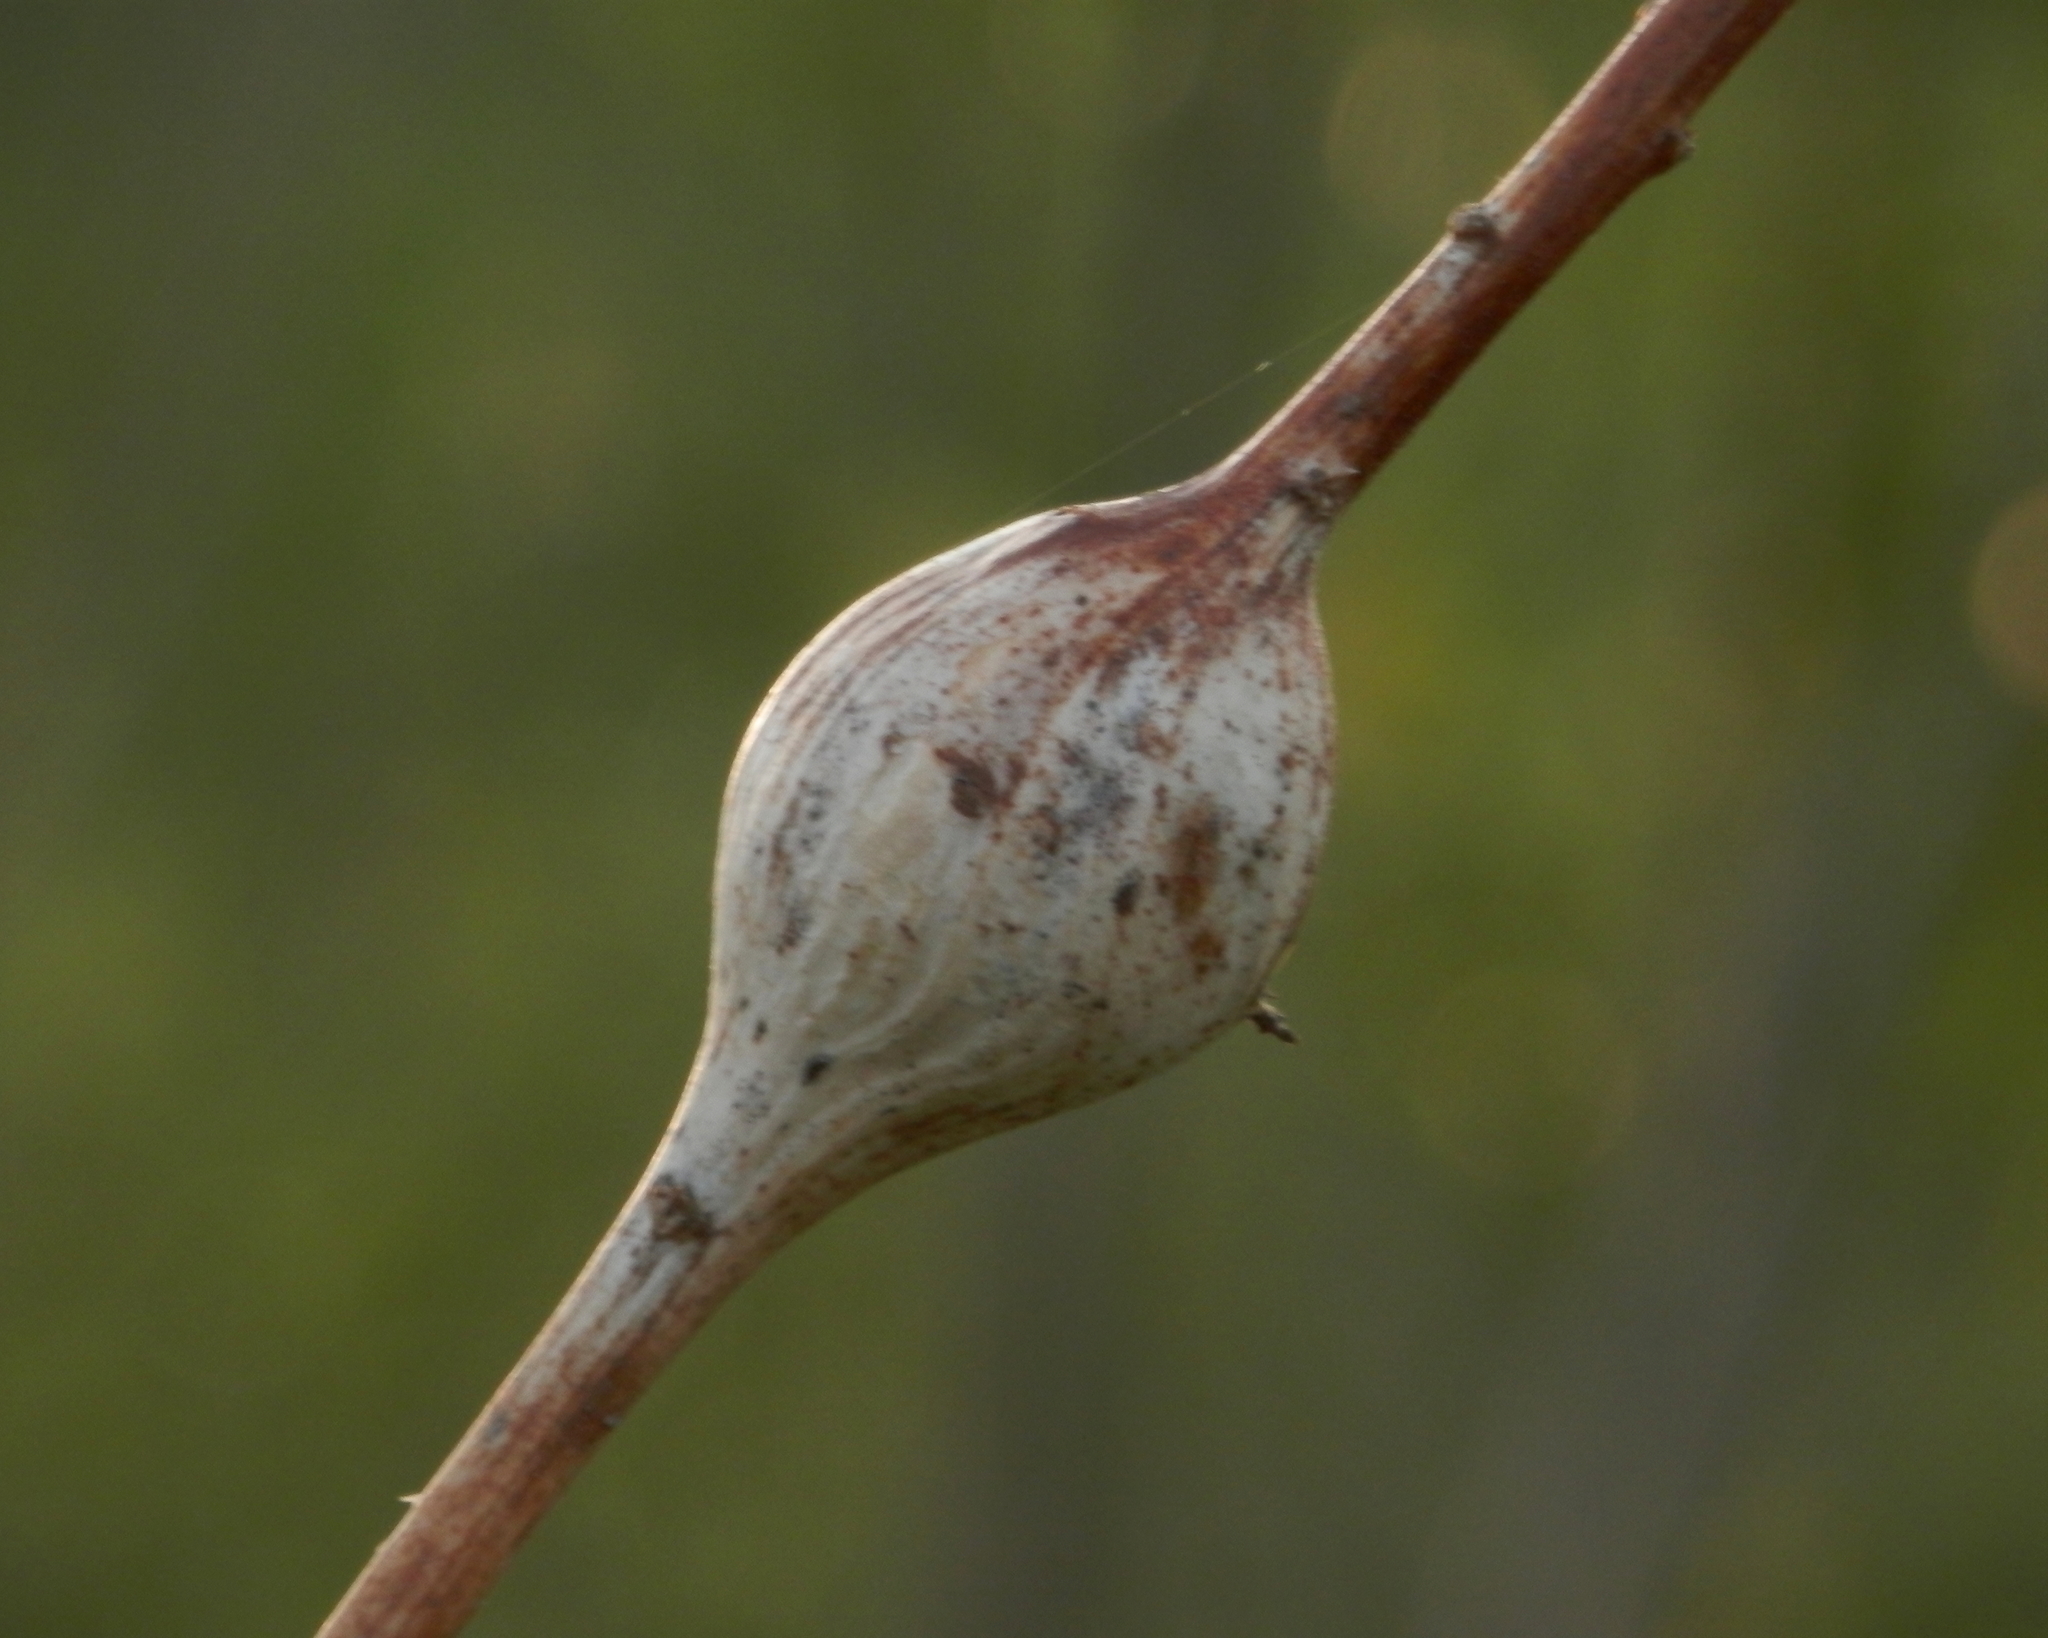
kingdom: Animalia
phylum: Arthropoda
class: Insecta
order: Diptera
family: Tephritidae
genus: Eurosta
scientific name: Eurosta solidaginis
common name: Goldenrod gall fly
